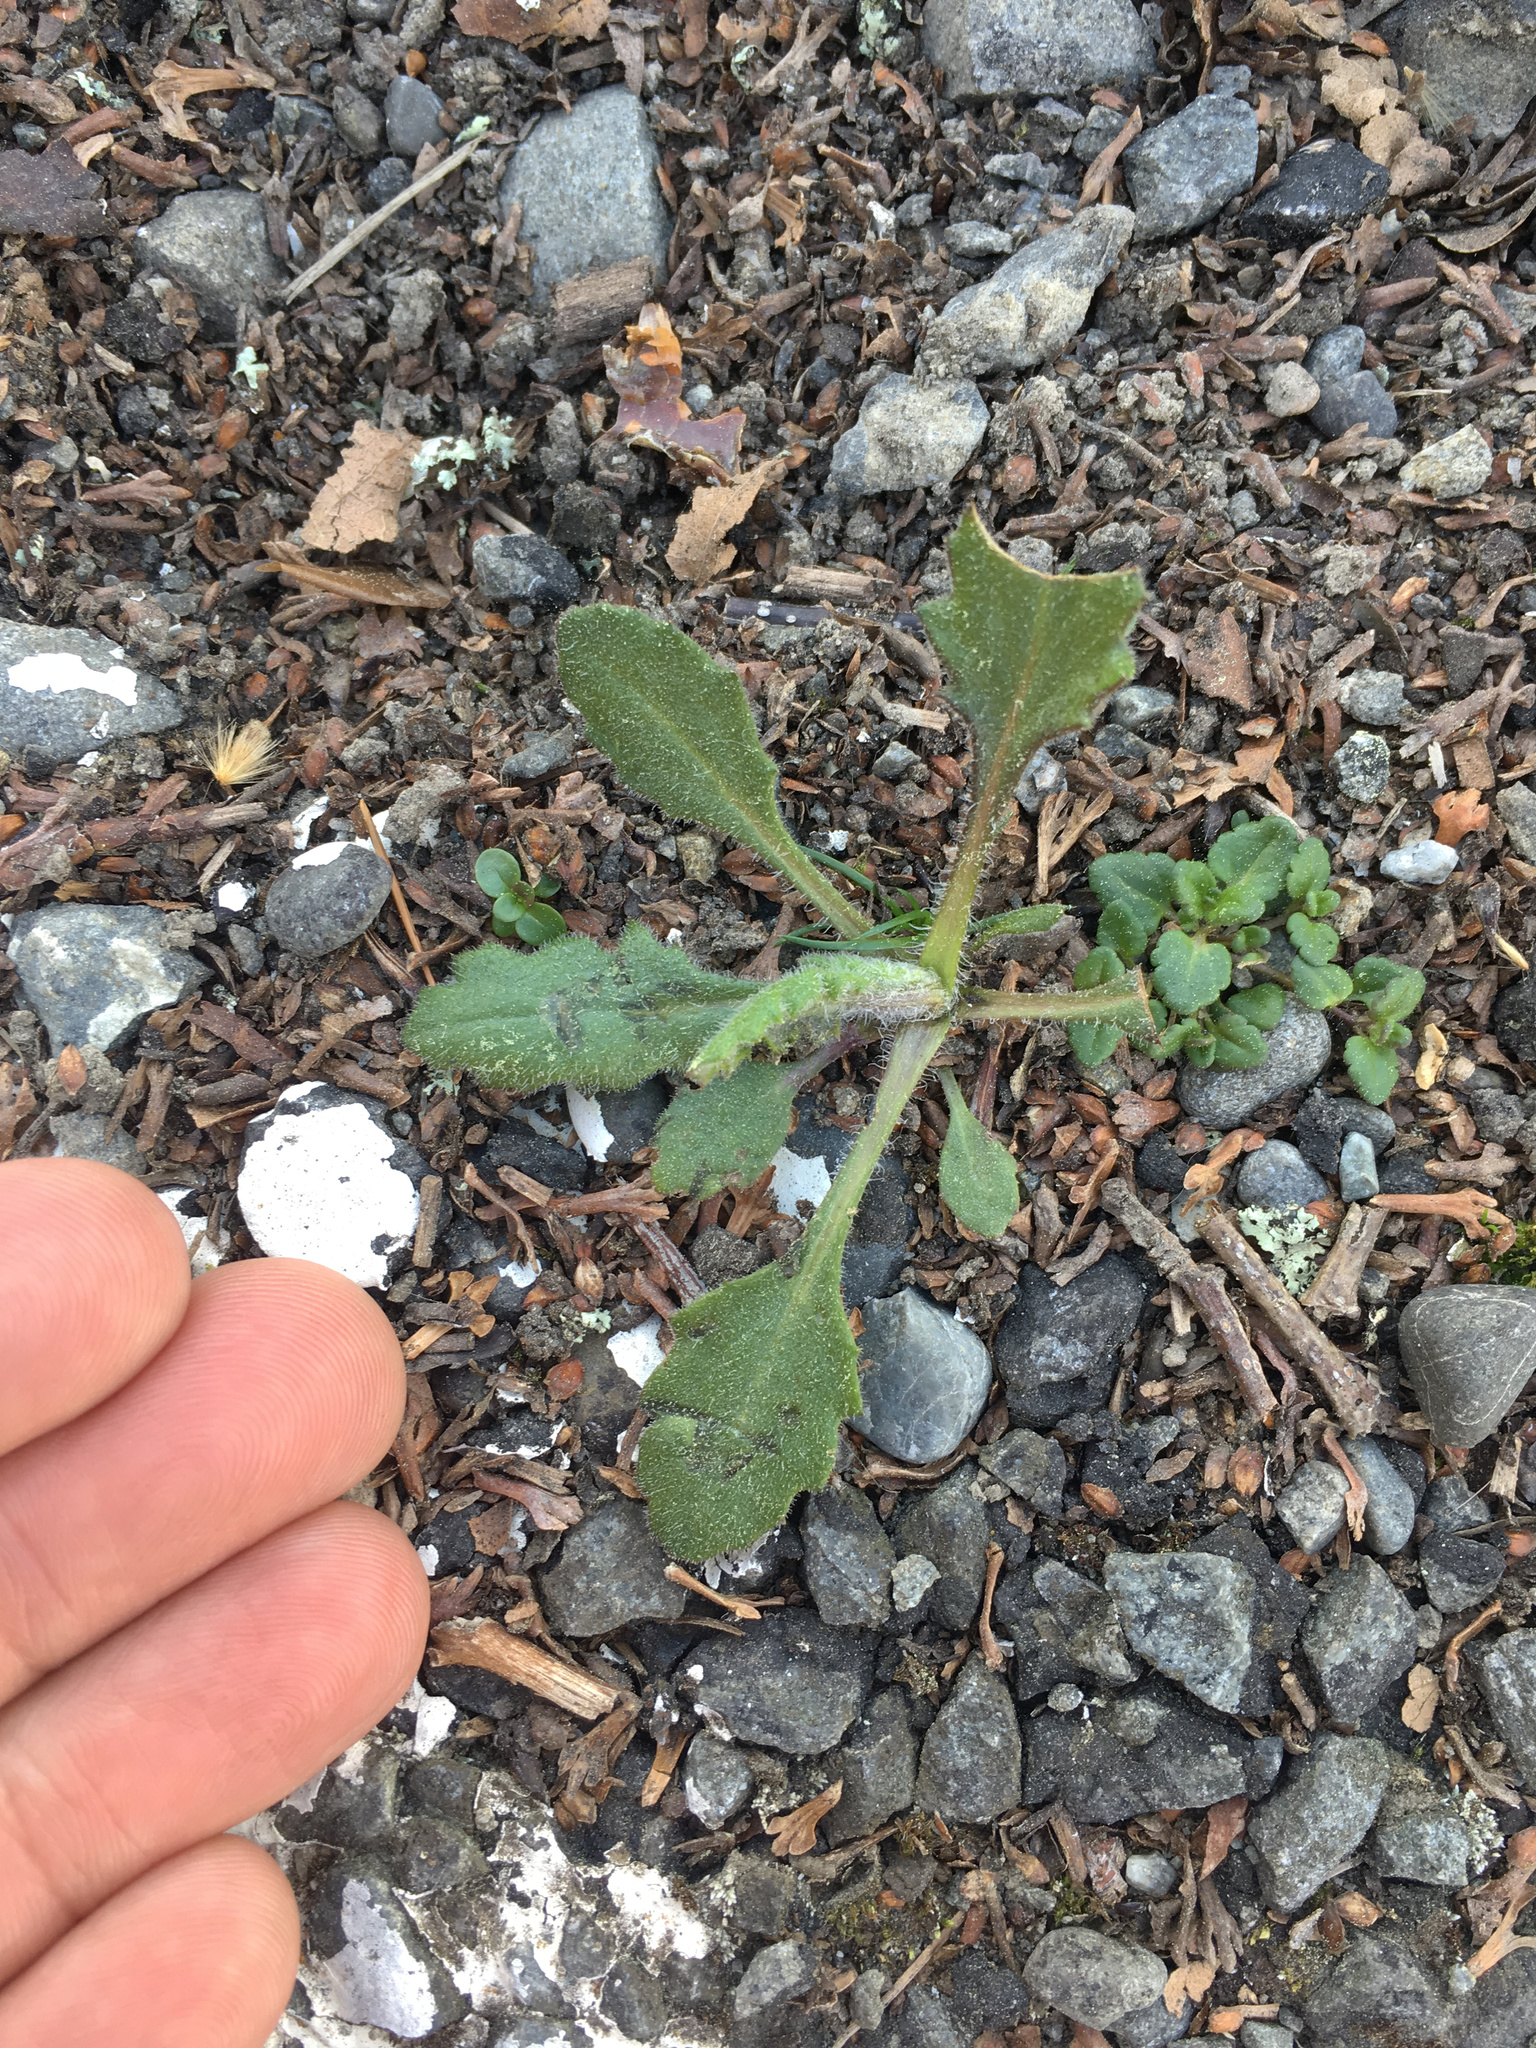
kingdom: Plantae
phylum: Tracheophyta
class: Magnoliopsida
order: Asterales
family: Asteraceae
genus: Senecio
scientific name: Senecio glomeratus
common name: Cutleaf burnweed
